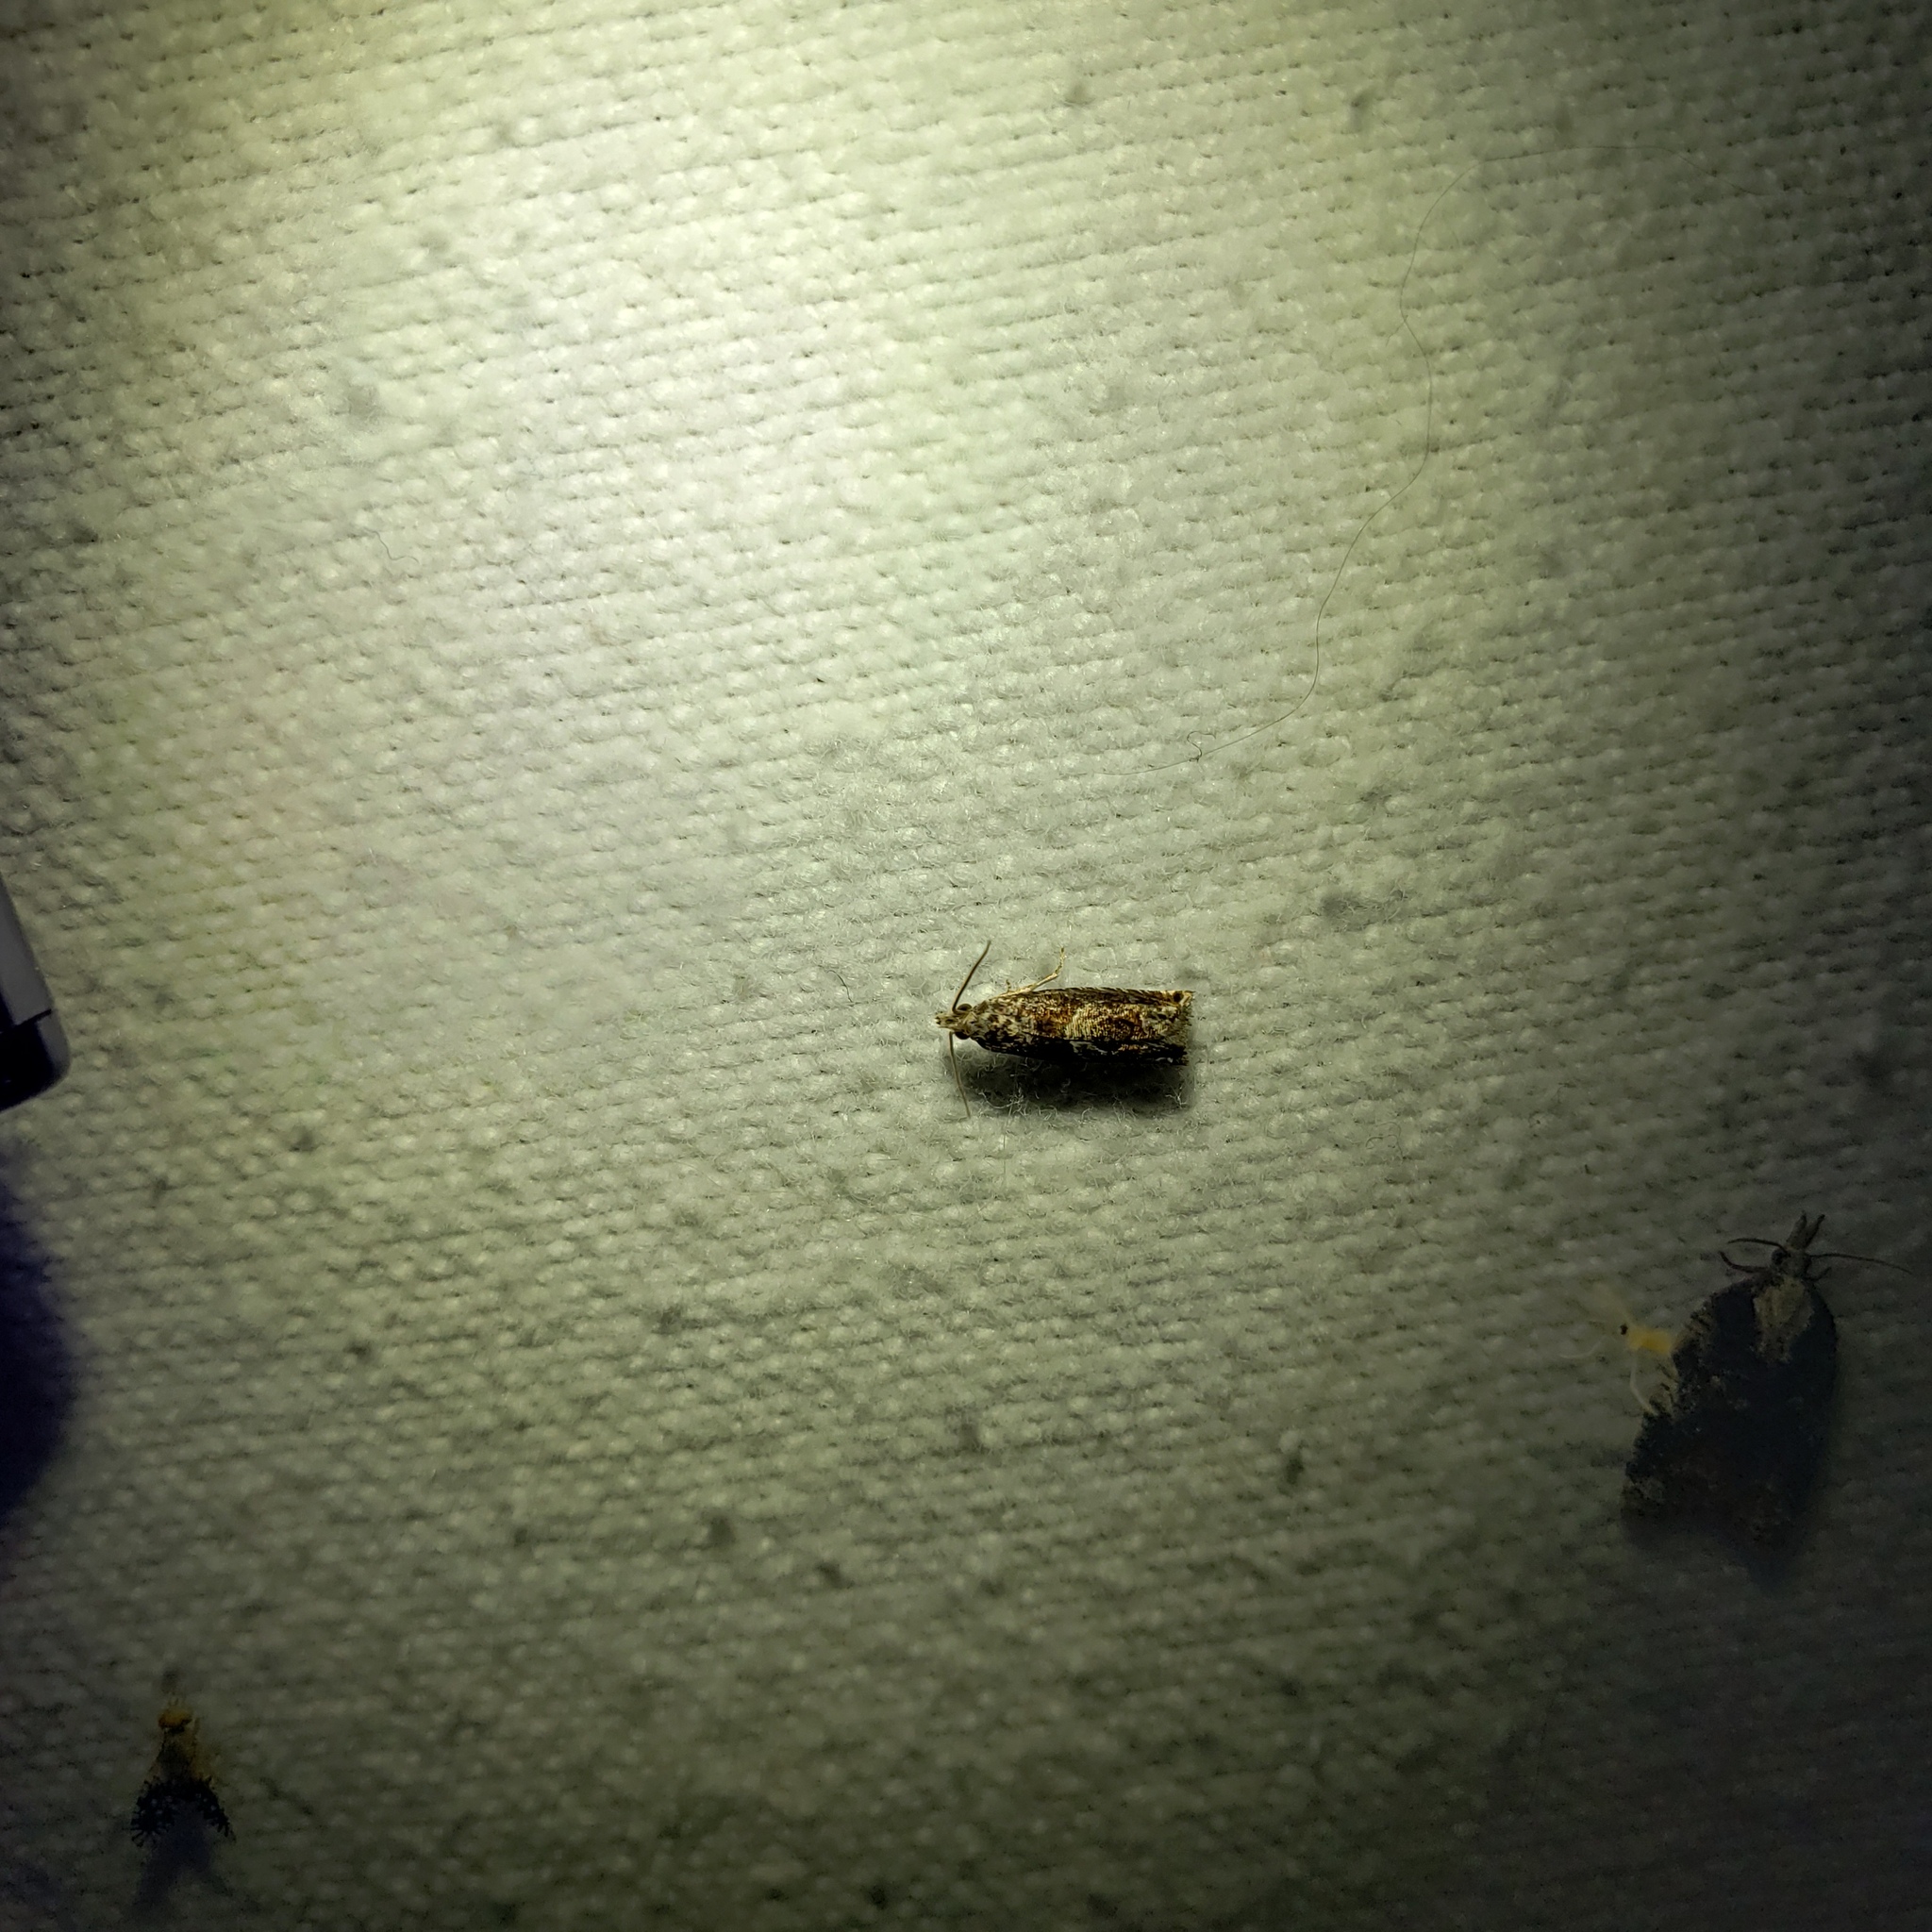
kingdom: Animalia
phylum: Arthropoda
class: Insecta
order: Lepidoptera
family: Tortricidae
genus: Episimus
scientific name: Episimus argutana
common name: Sumac leaftier moth
